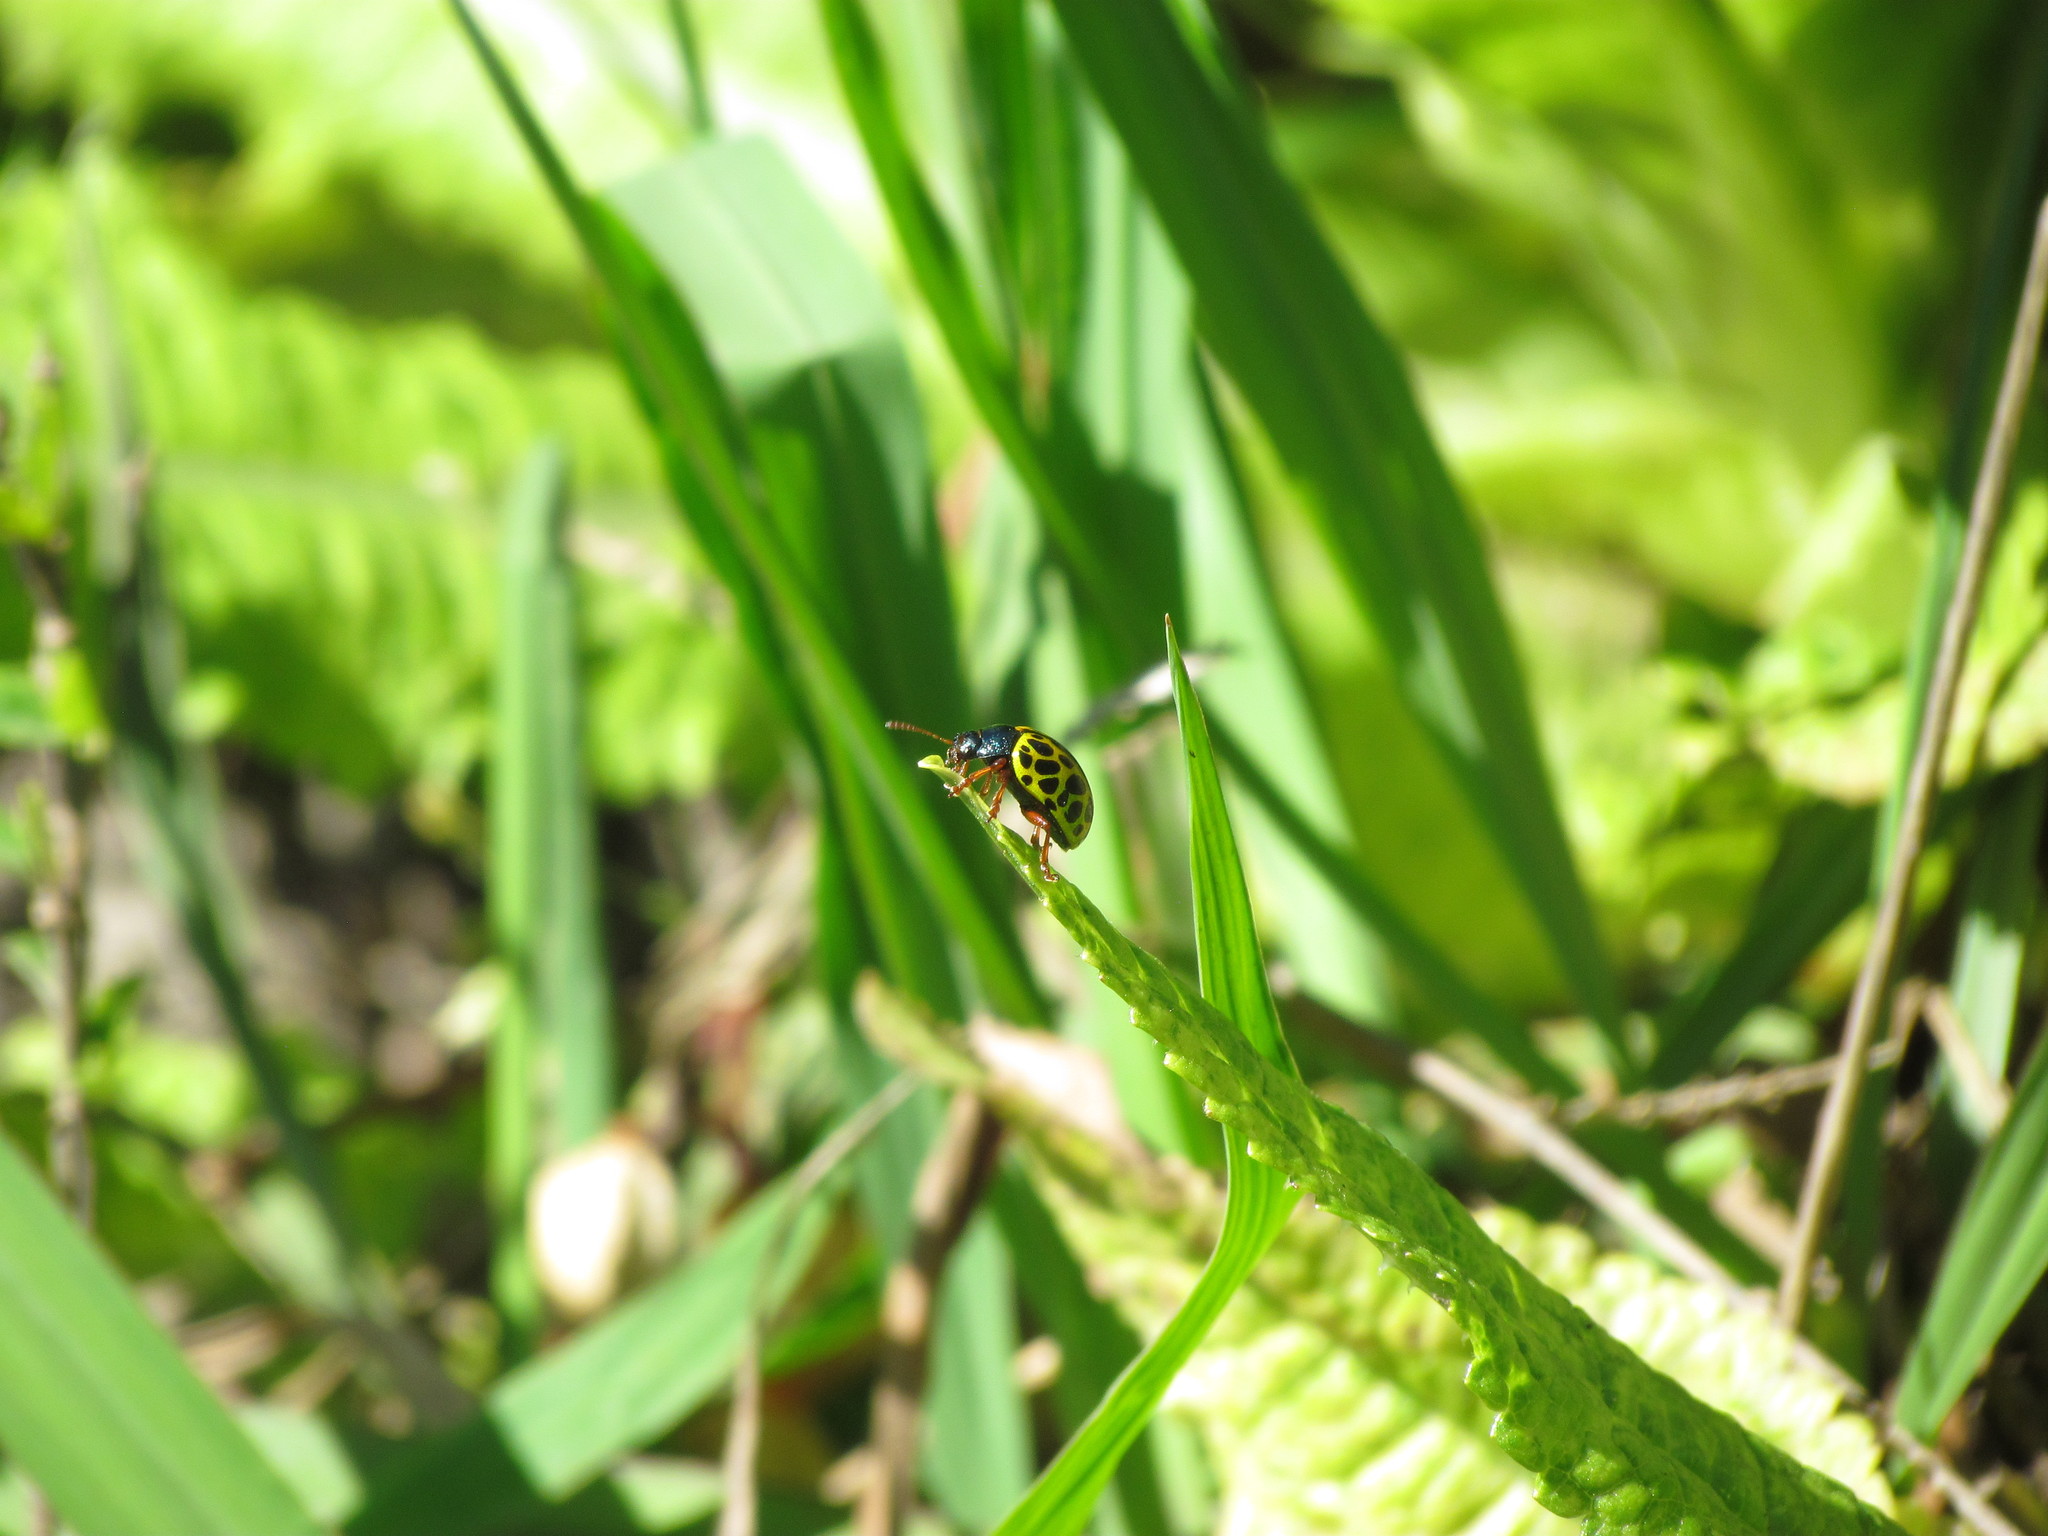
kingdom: Animalia
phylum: Arthropoda
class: Insecta
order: Coleoptera
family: Chrysomelidae
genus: Calligrapha
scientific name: Calligrapha polyspila
